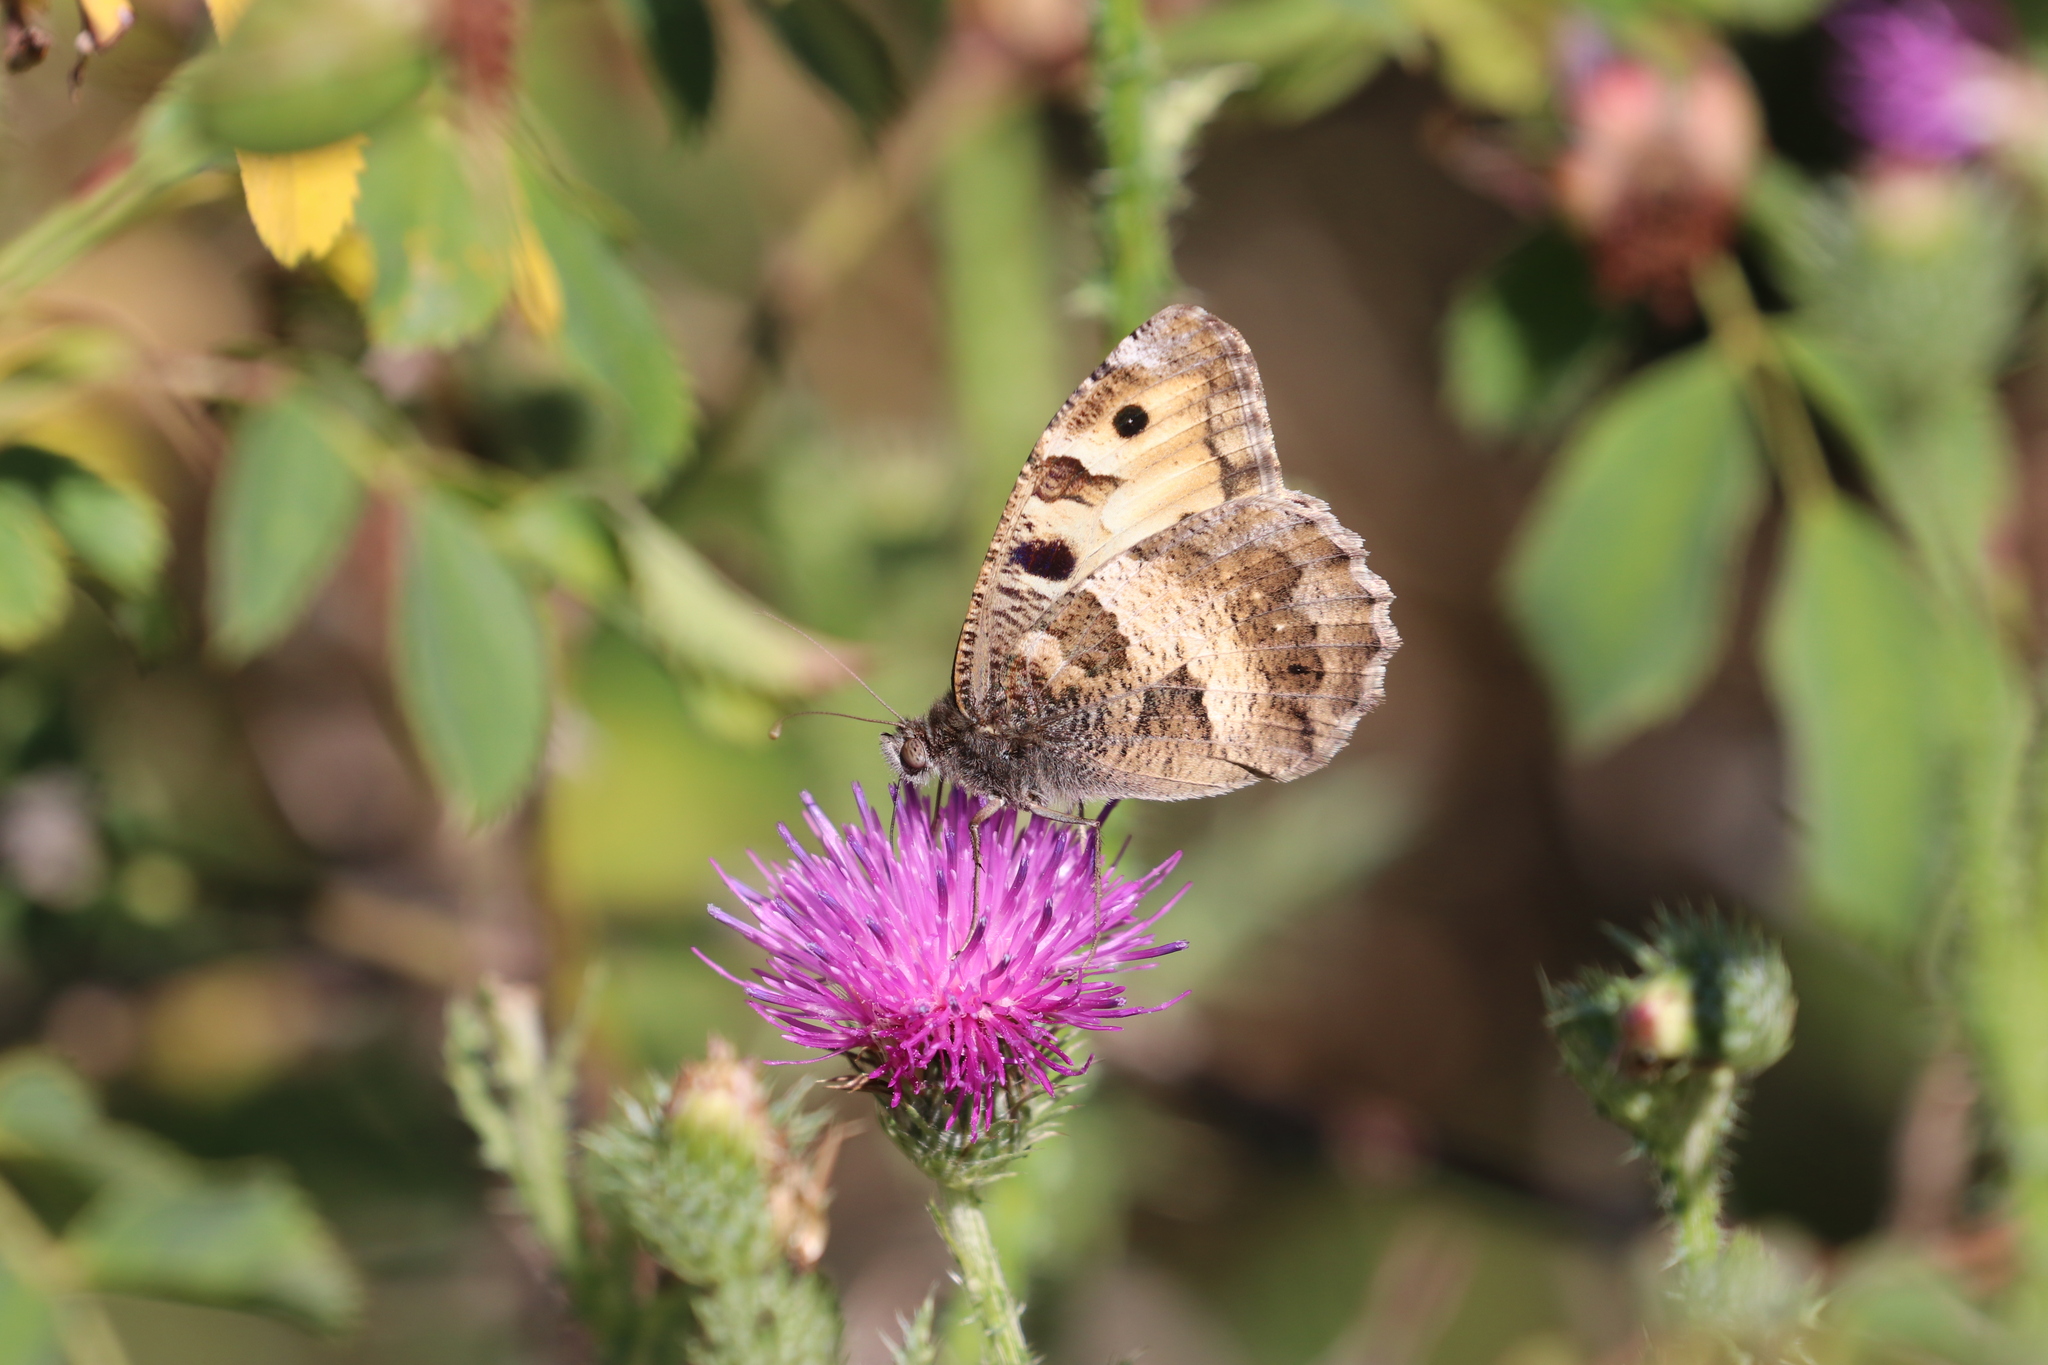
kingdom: Animalia
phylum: Arthropoda
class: Insecta
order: Lepidoptera
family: Nymphalidae
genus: Satyrus
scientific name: Satyrus briseis
